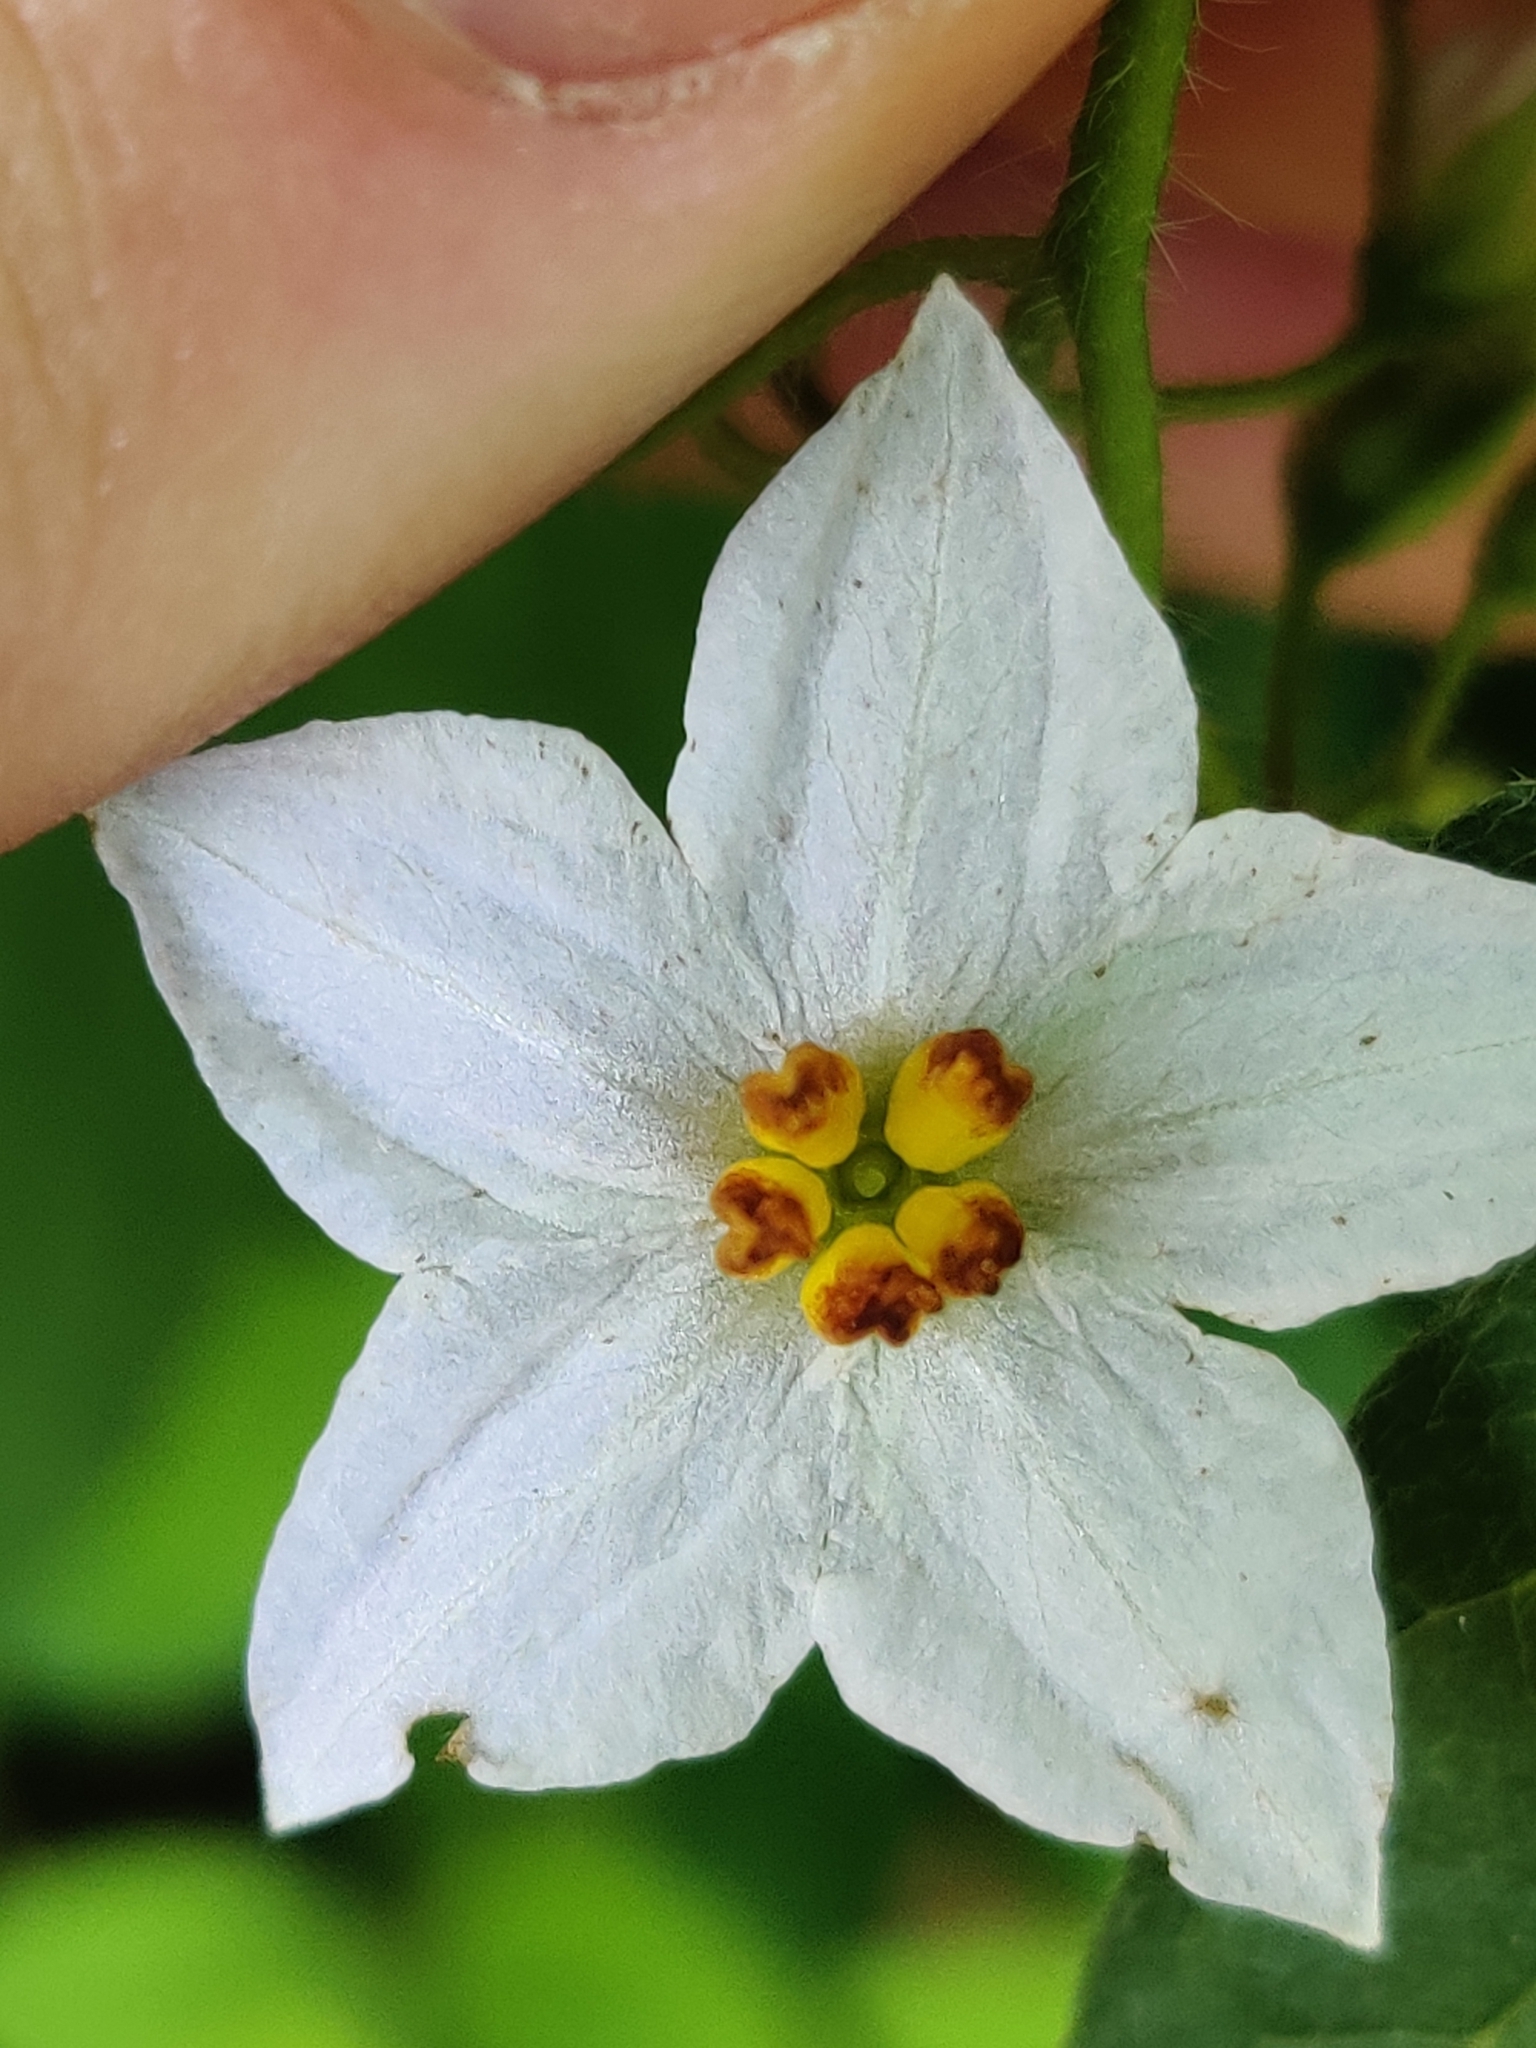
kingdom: Plantae
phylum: Tracheophyta
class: Magnoliopsida
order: Solanales
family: Solanaceae
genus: Solanum
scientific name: Solanum carolinense
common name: Horse-nettle
